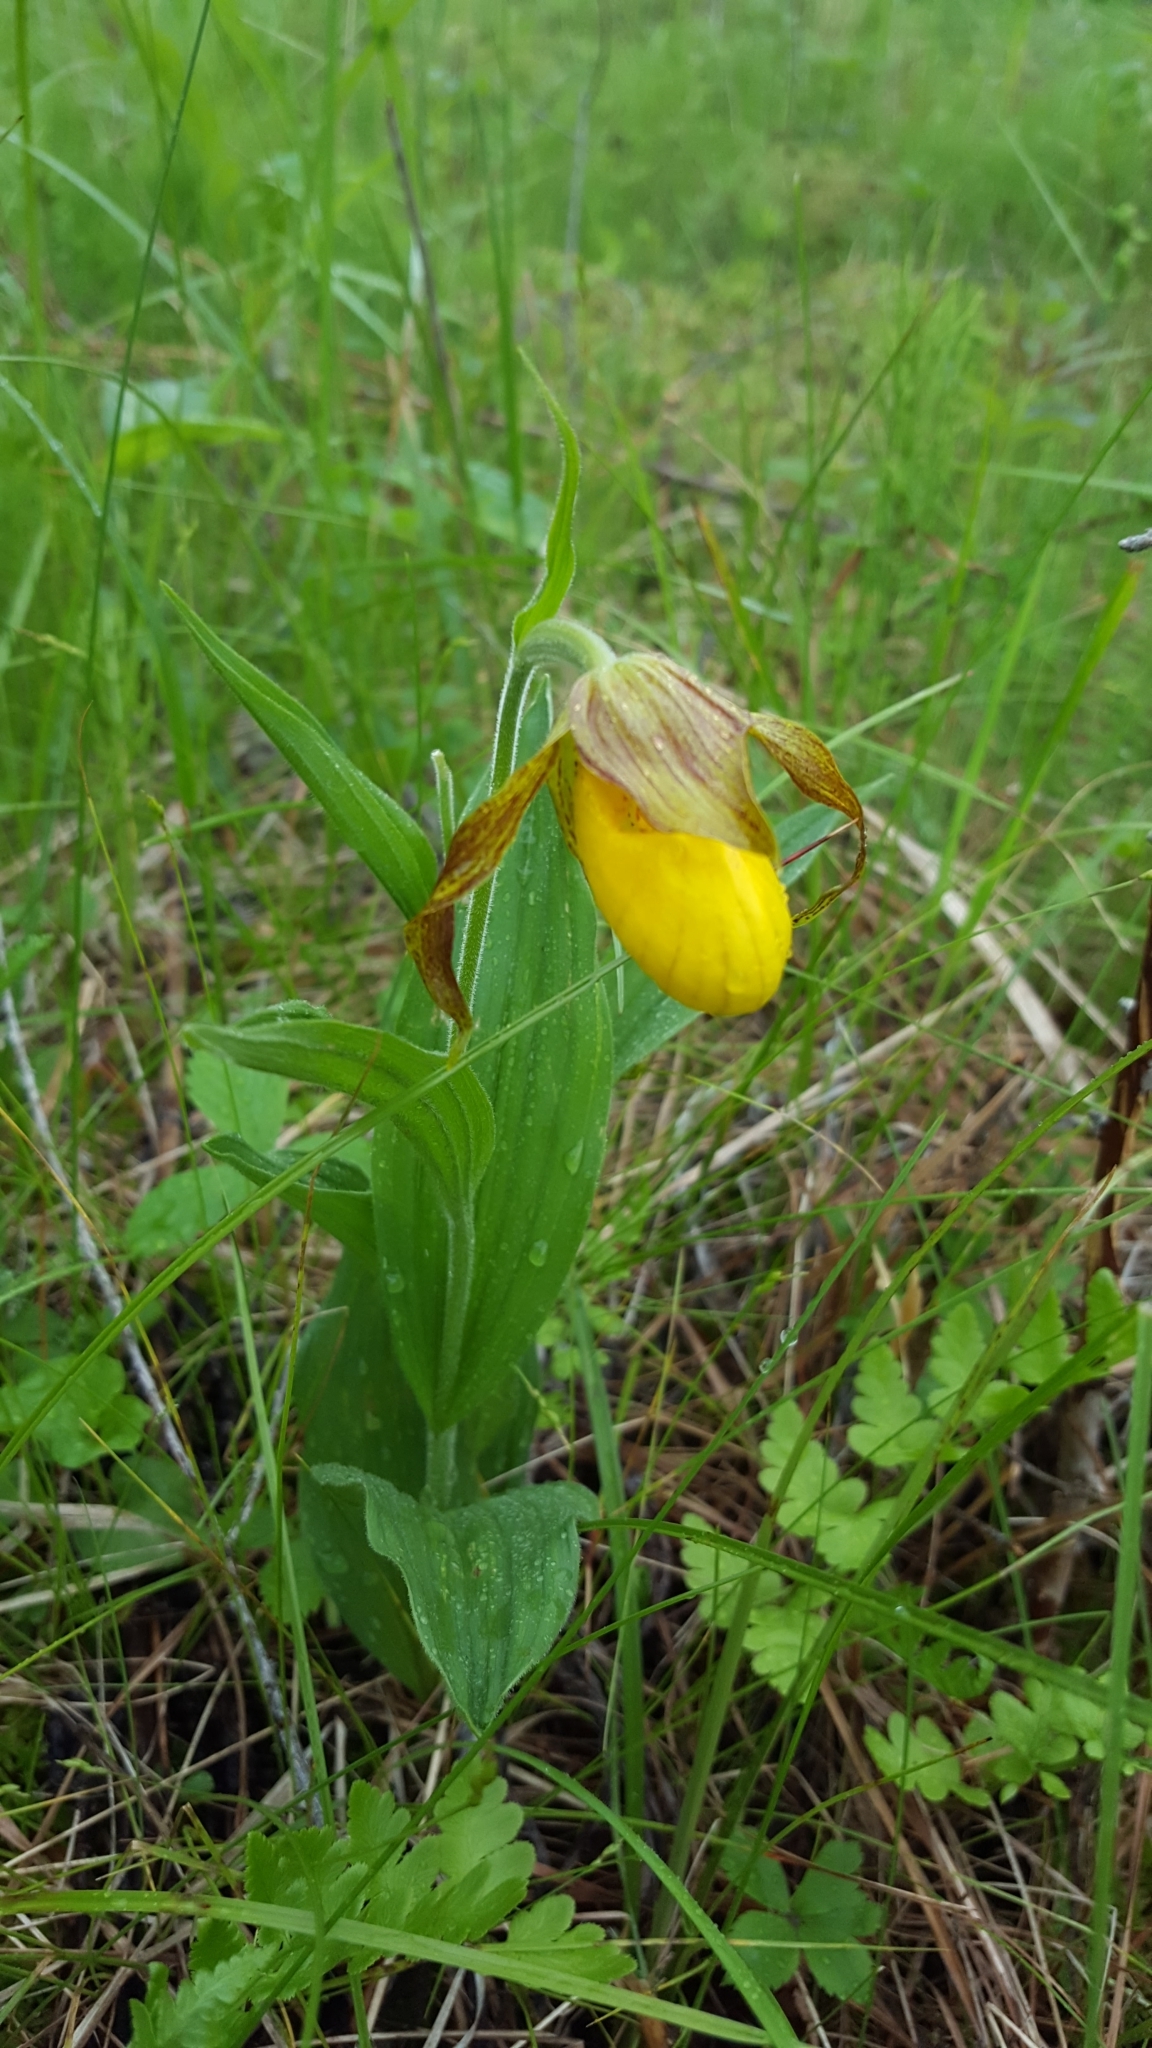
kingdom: Plantae
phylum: Tracheophyta
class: Liliopsida
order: Asparagales
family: Orchidaceae
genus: Cypripedium
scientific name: Cypripedium parviflorum
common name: American yellow lady's-slipper
